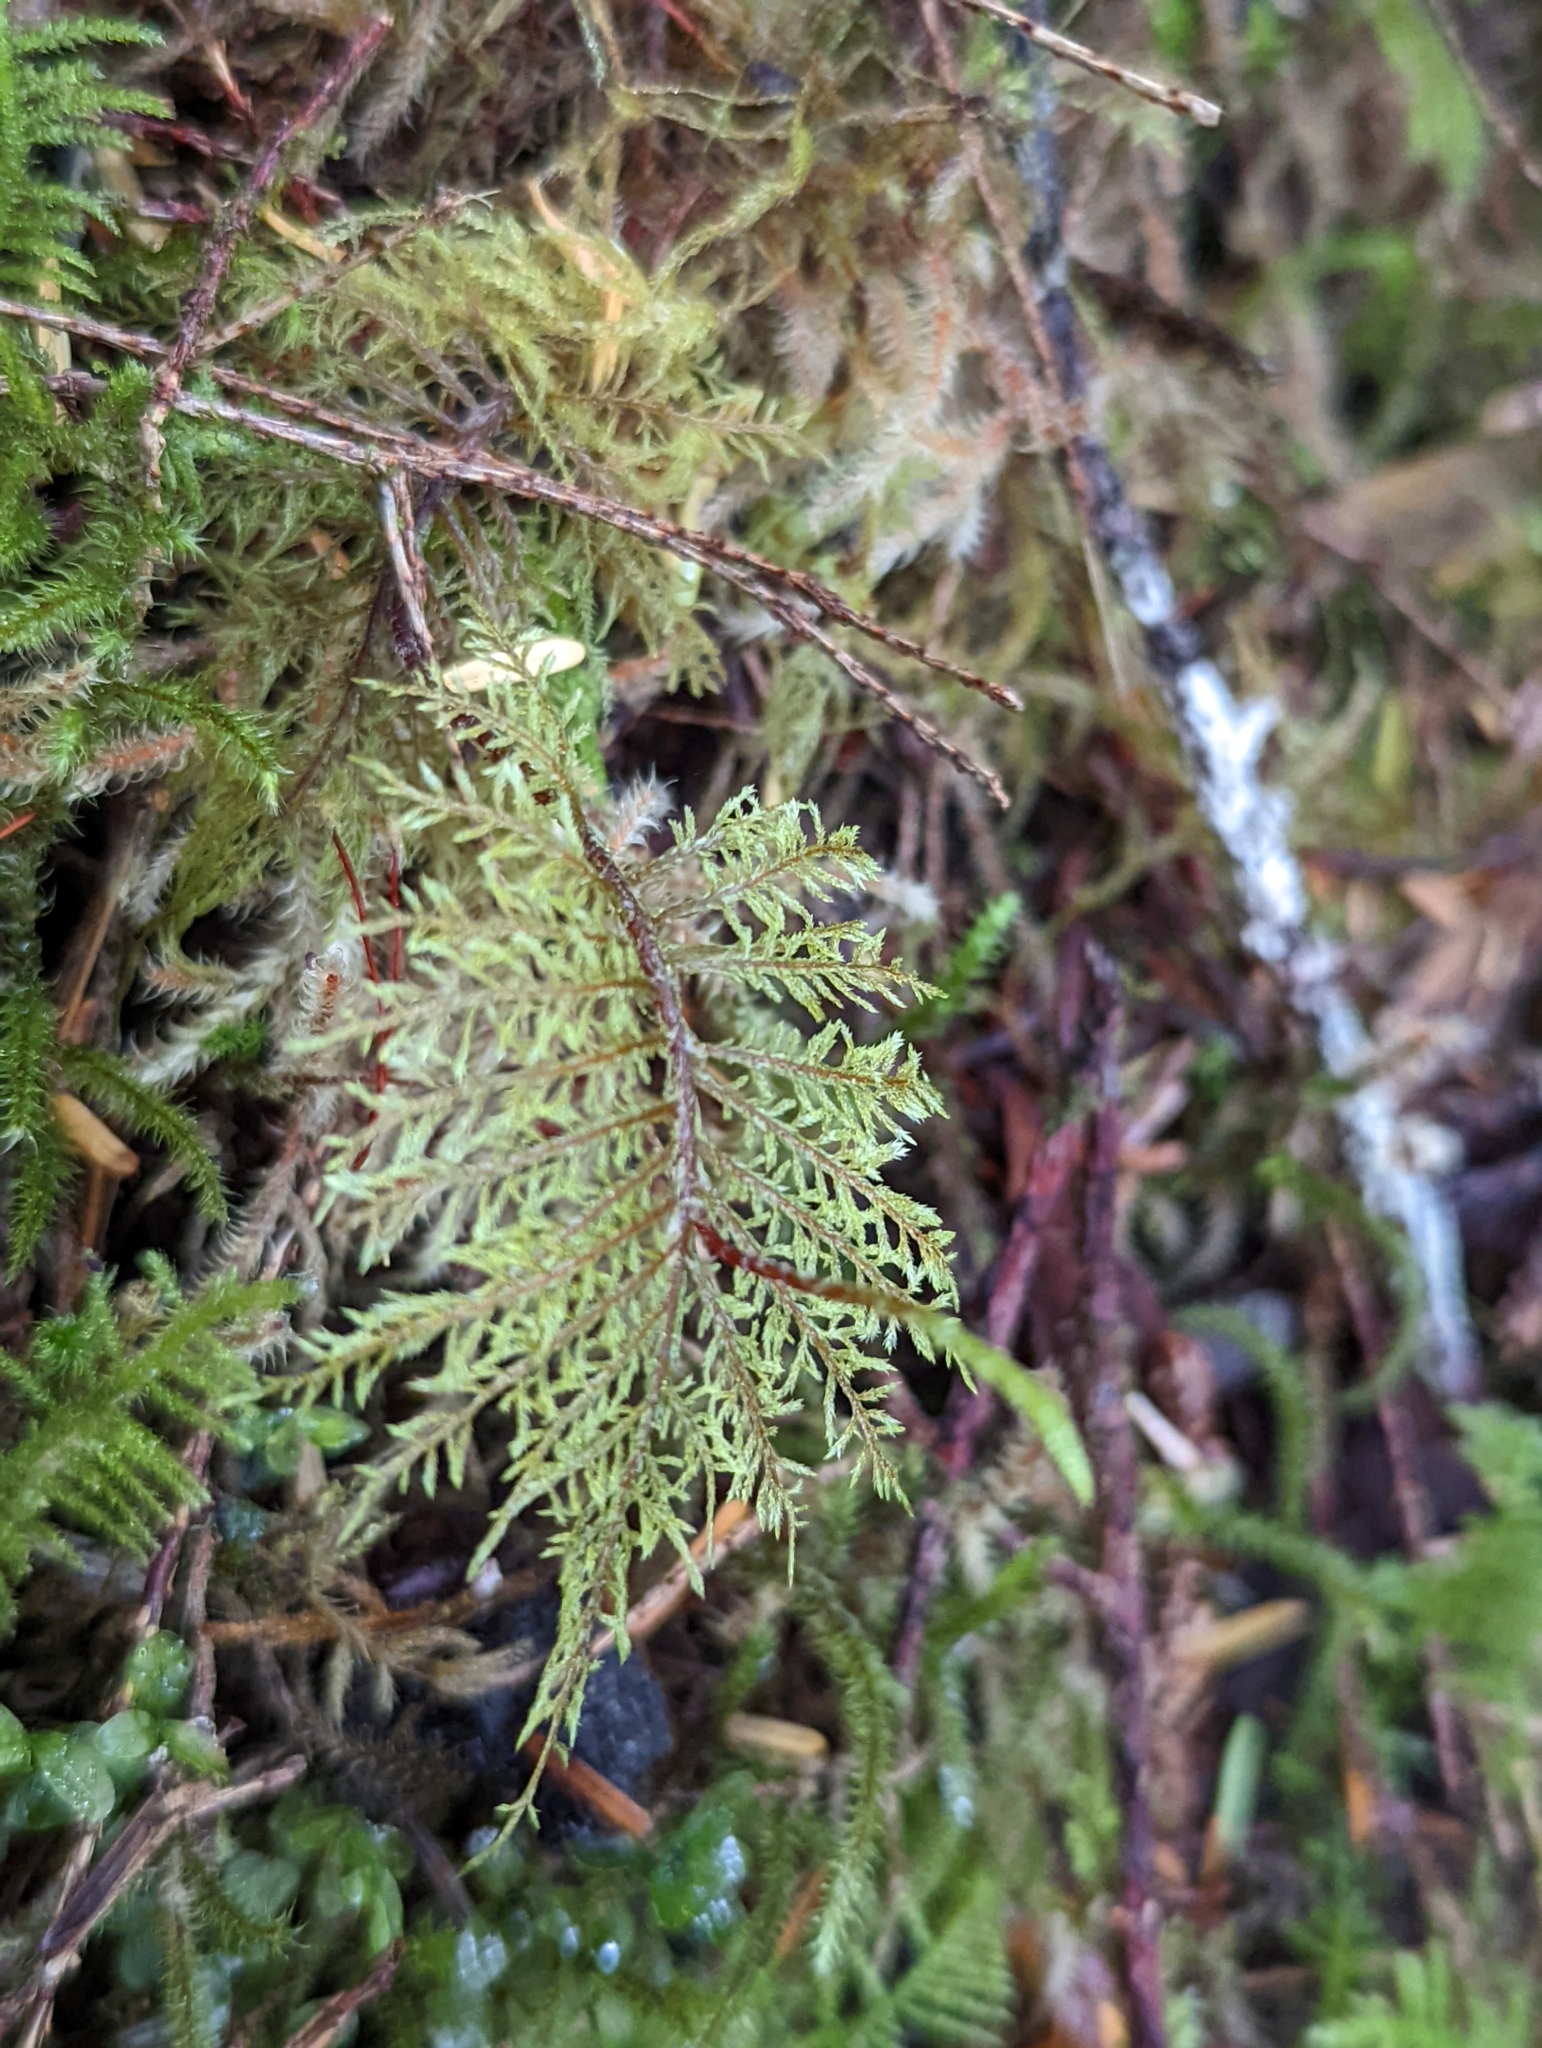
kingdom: Plantae
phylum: Bryophyta
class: Bryopsida
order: Hypnales
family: Hylocomiaceae
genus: Hylocomium
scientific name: Hylocomium splendens
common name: Stairstep moss
